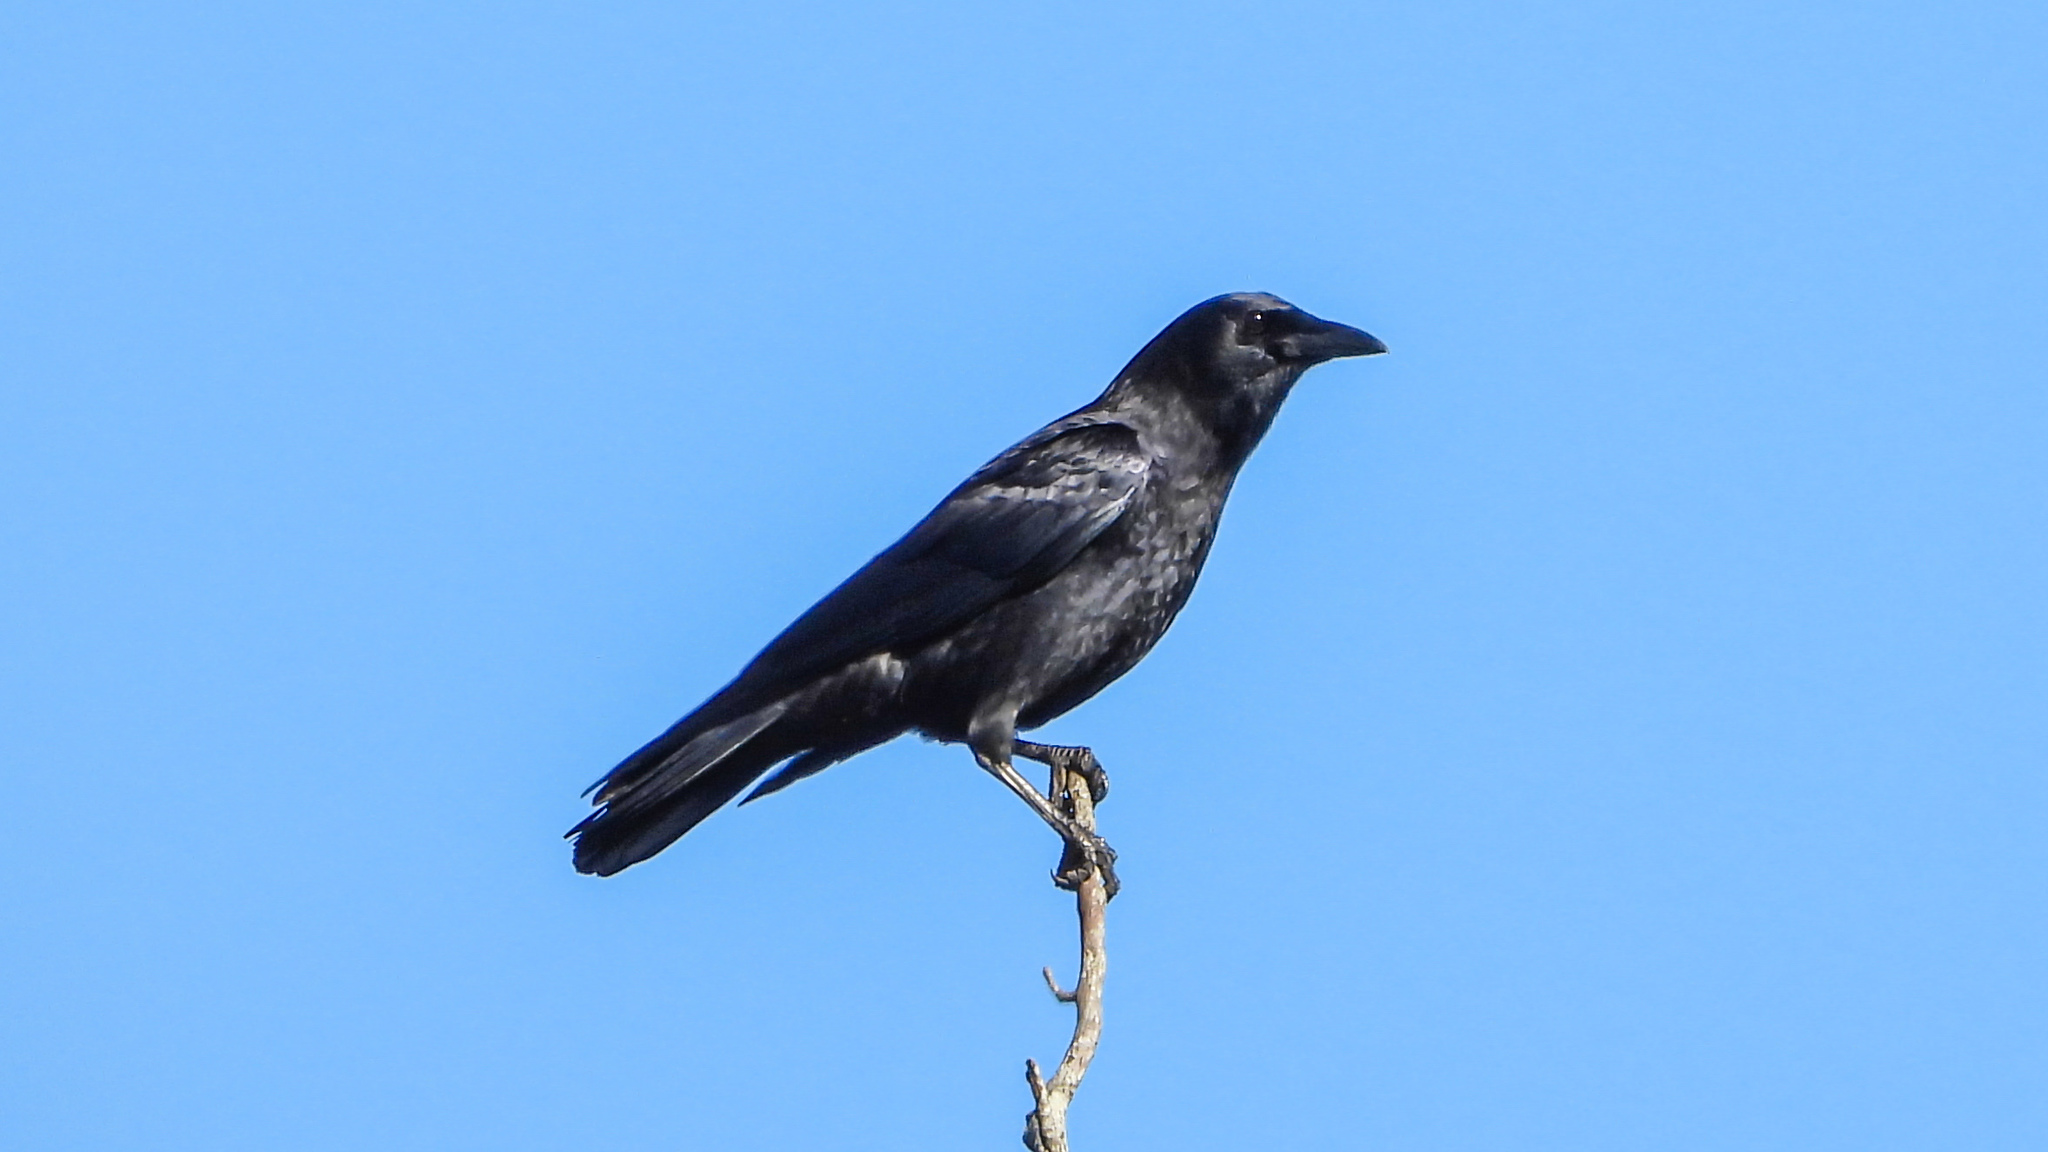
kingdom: Animalia
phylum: Chordata
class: Aves
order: Passeriformes
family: Corvidae
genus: Corvus
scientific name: Corvus brachyrhynchos
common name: American crow
